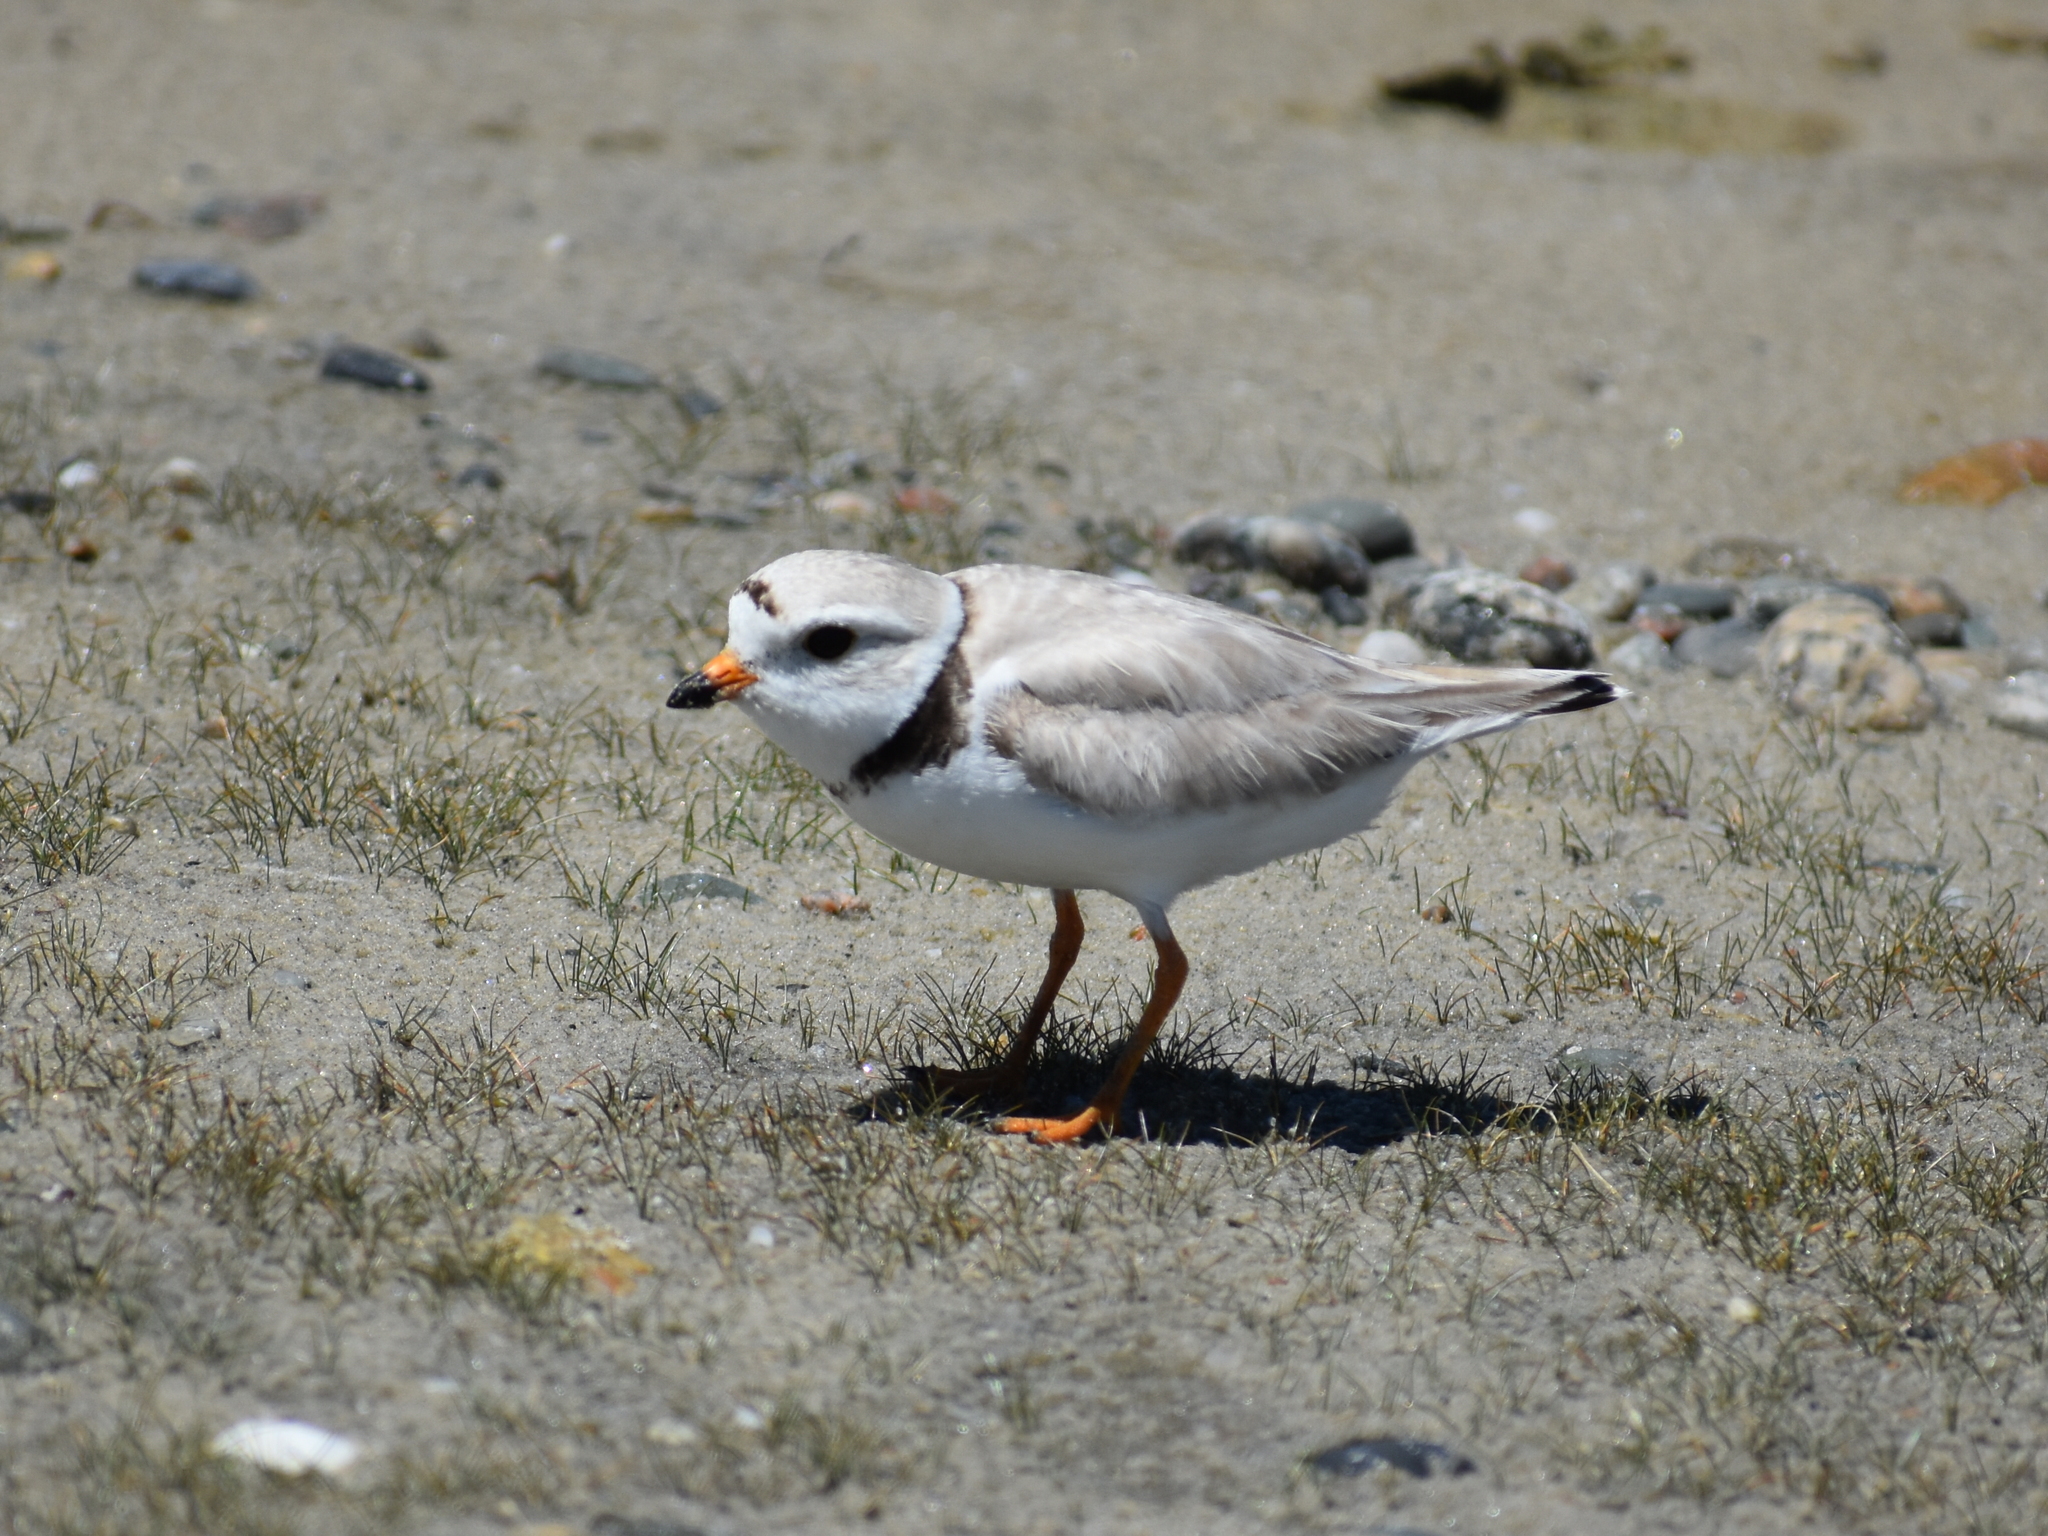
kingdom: Animalia
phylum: Chordata
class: Aves
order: Charadriiformes
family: Charadriidae
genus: Charadrius
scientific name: Charadrius melodus
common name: Piping plover
